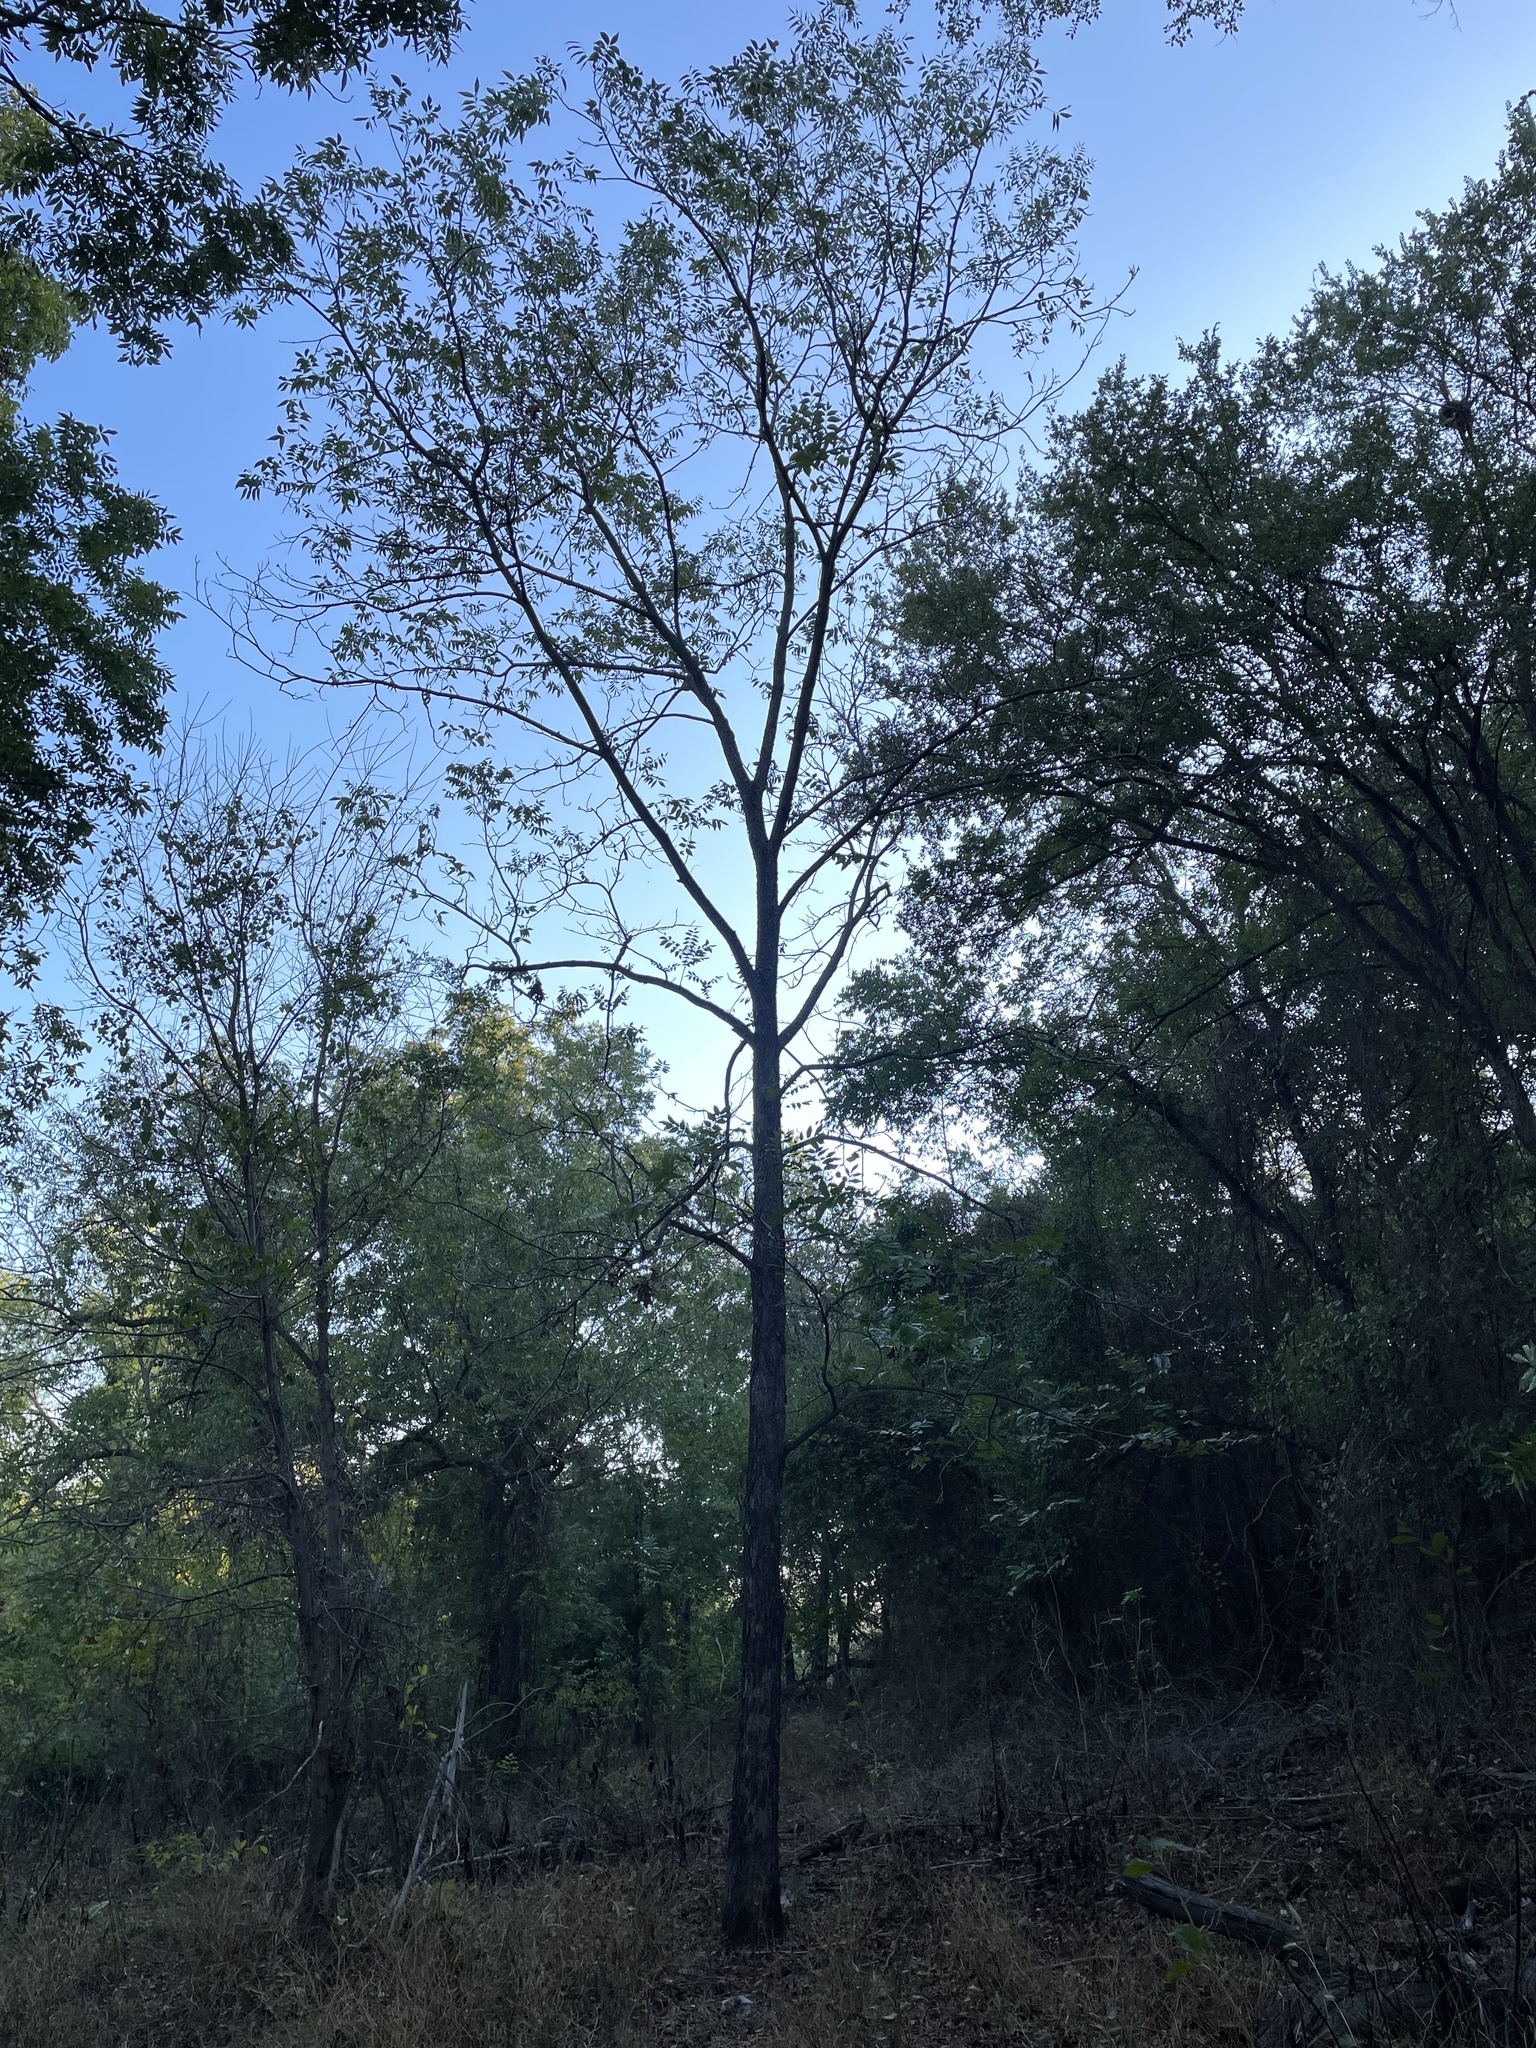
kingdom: Plantae
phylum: Tracheophyta
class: Magnoliopsida
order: Fagales
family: Juglandaceae
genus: Carya
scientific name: Carya illinoinensis
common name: Pecan
